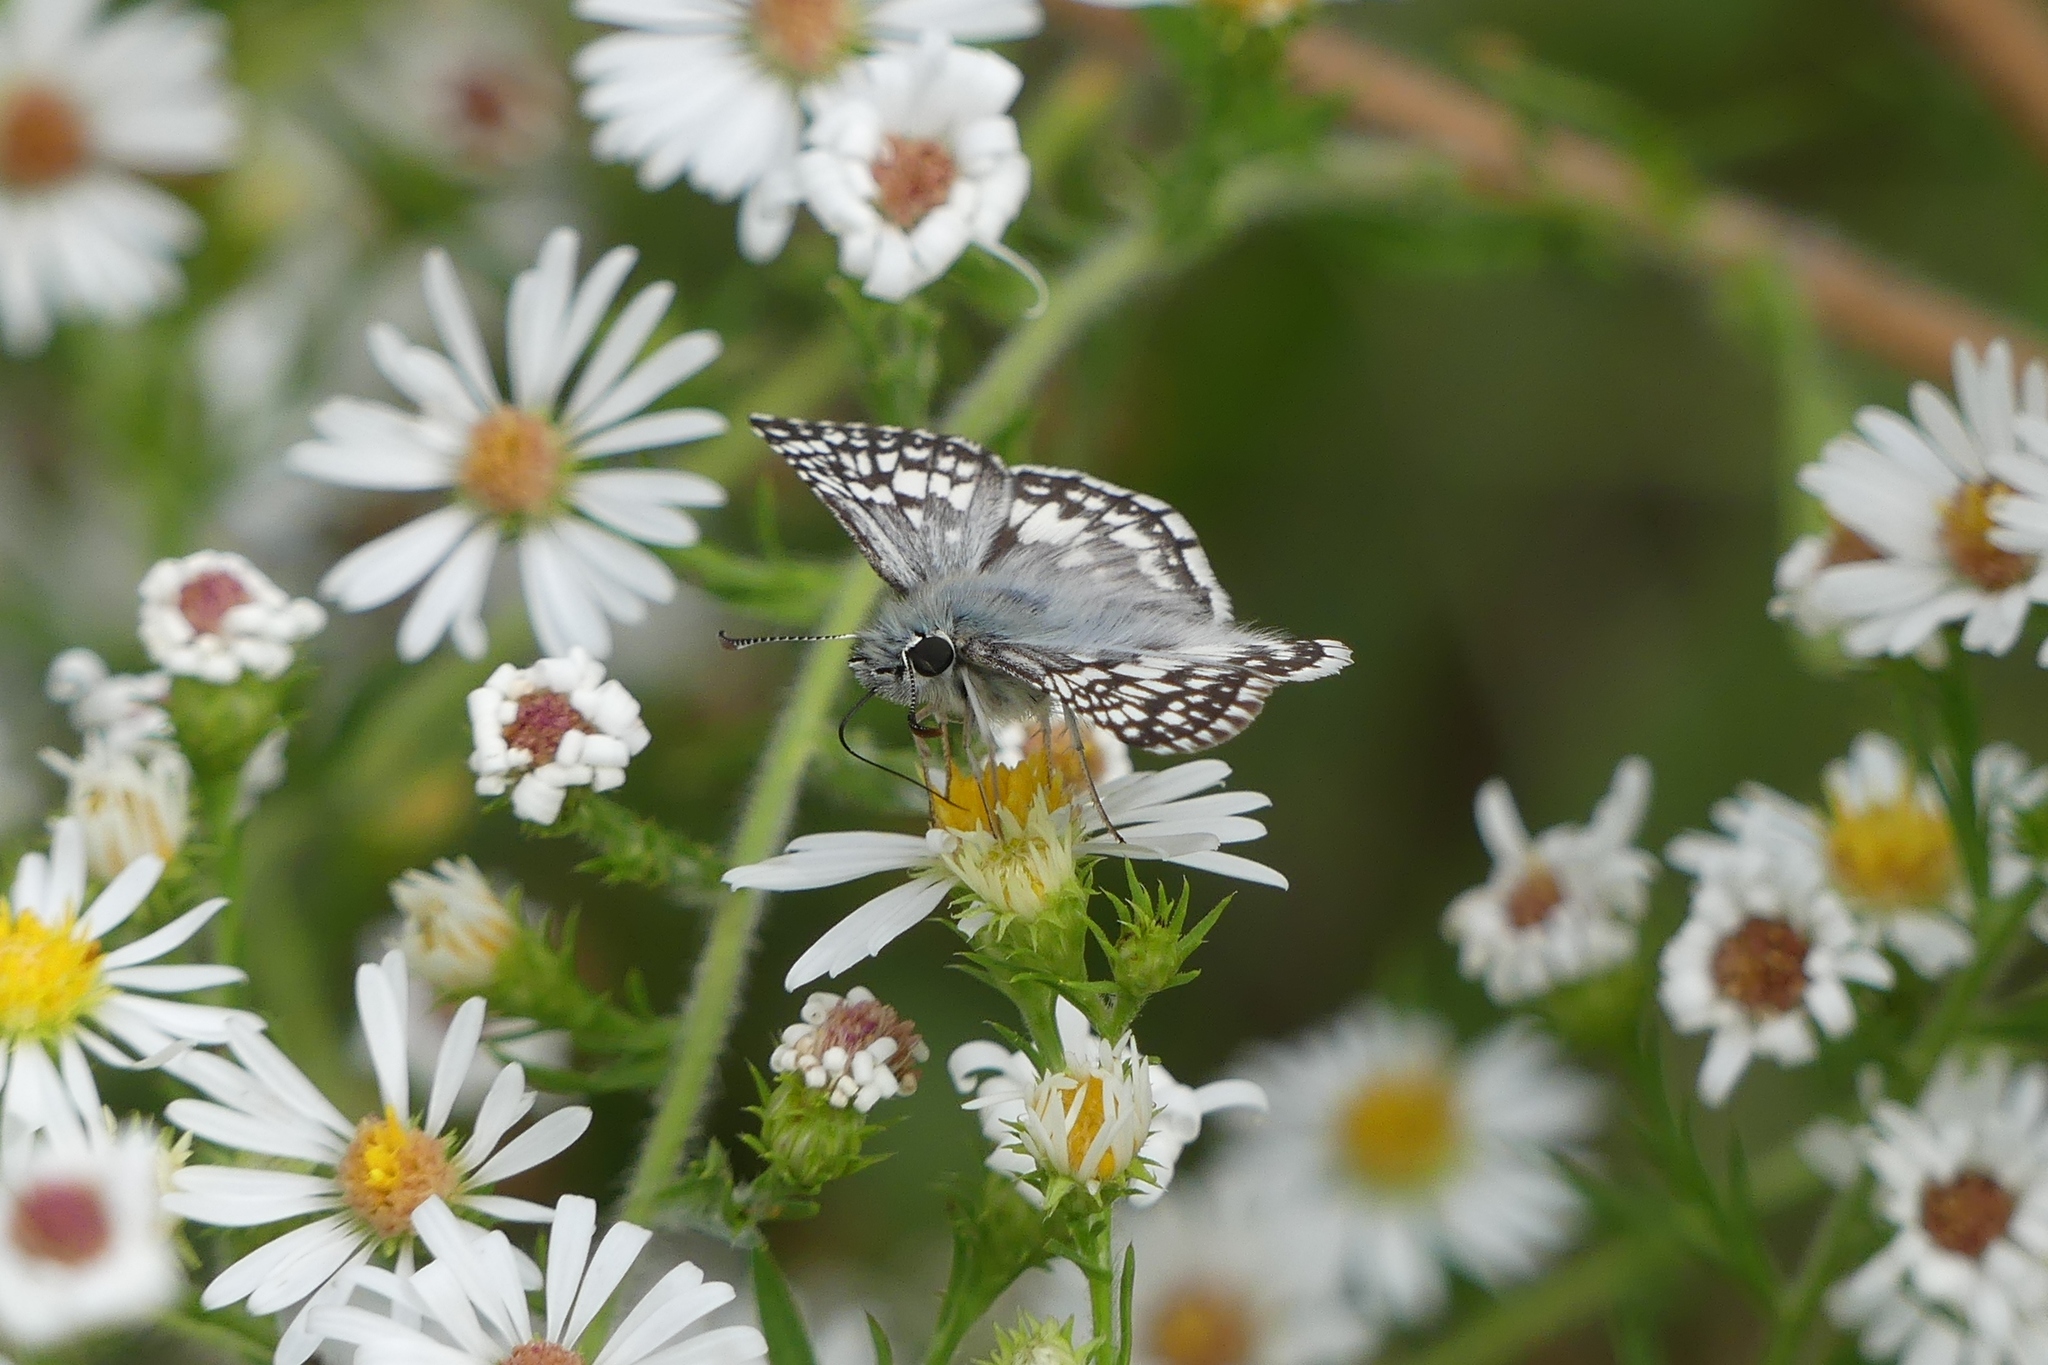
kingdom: Animalia
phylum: Arthropoda
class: Insecta
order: Lepidoptera
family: Hesperiidae
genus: Burnsius
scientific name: Burnsius communis
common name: Common checkered-skipper
